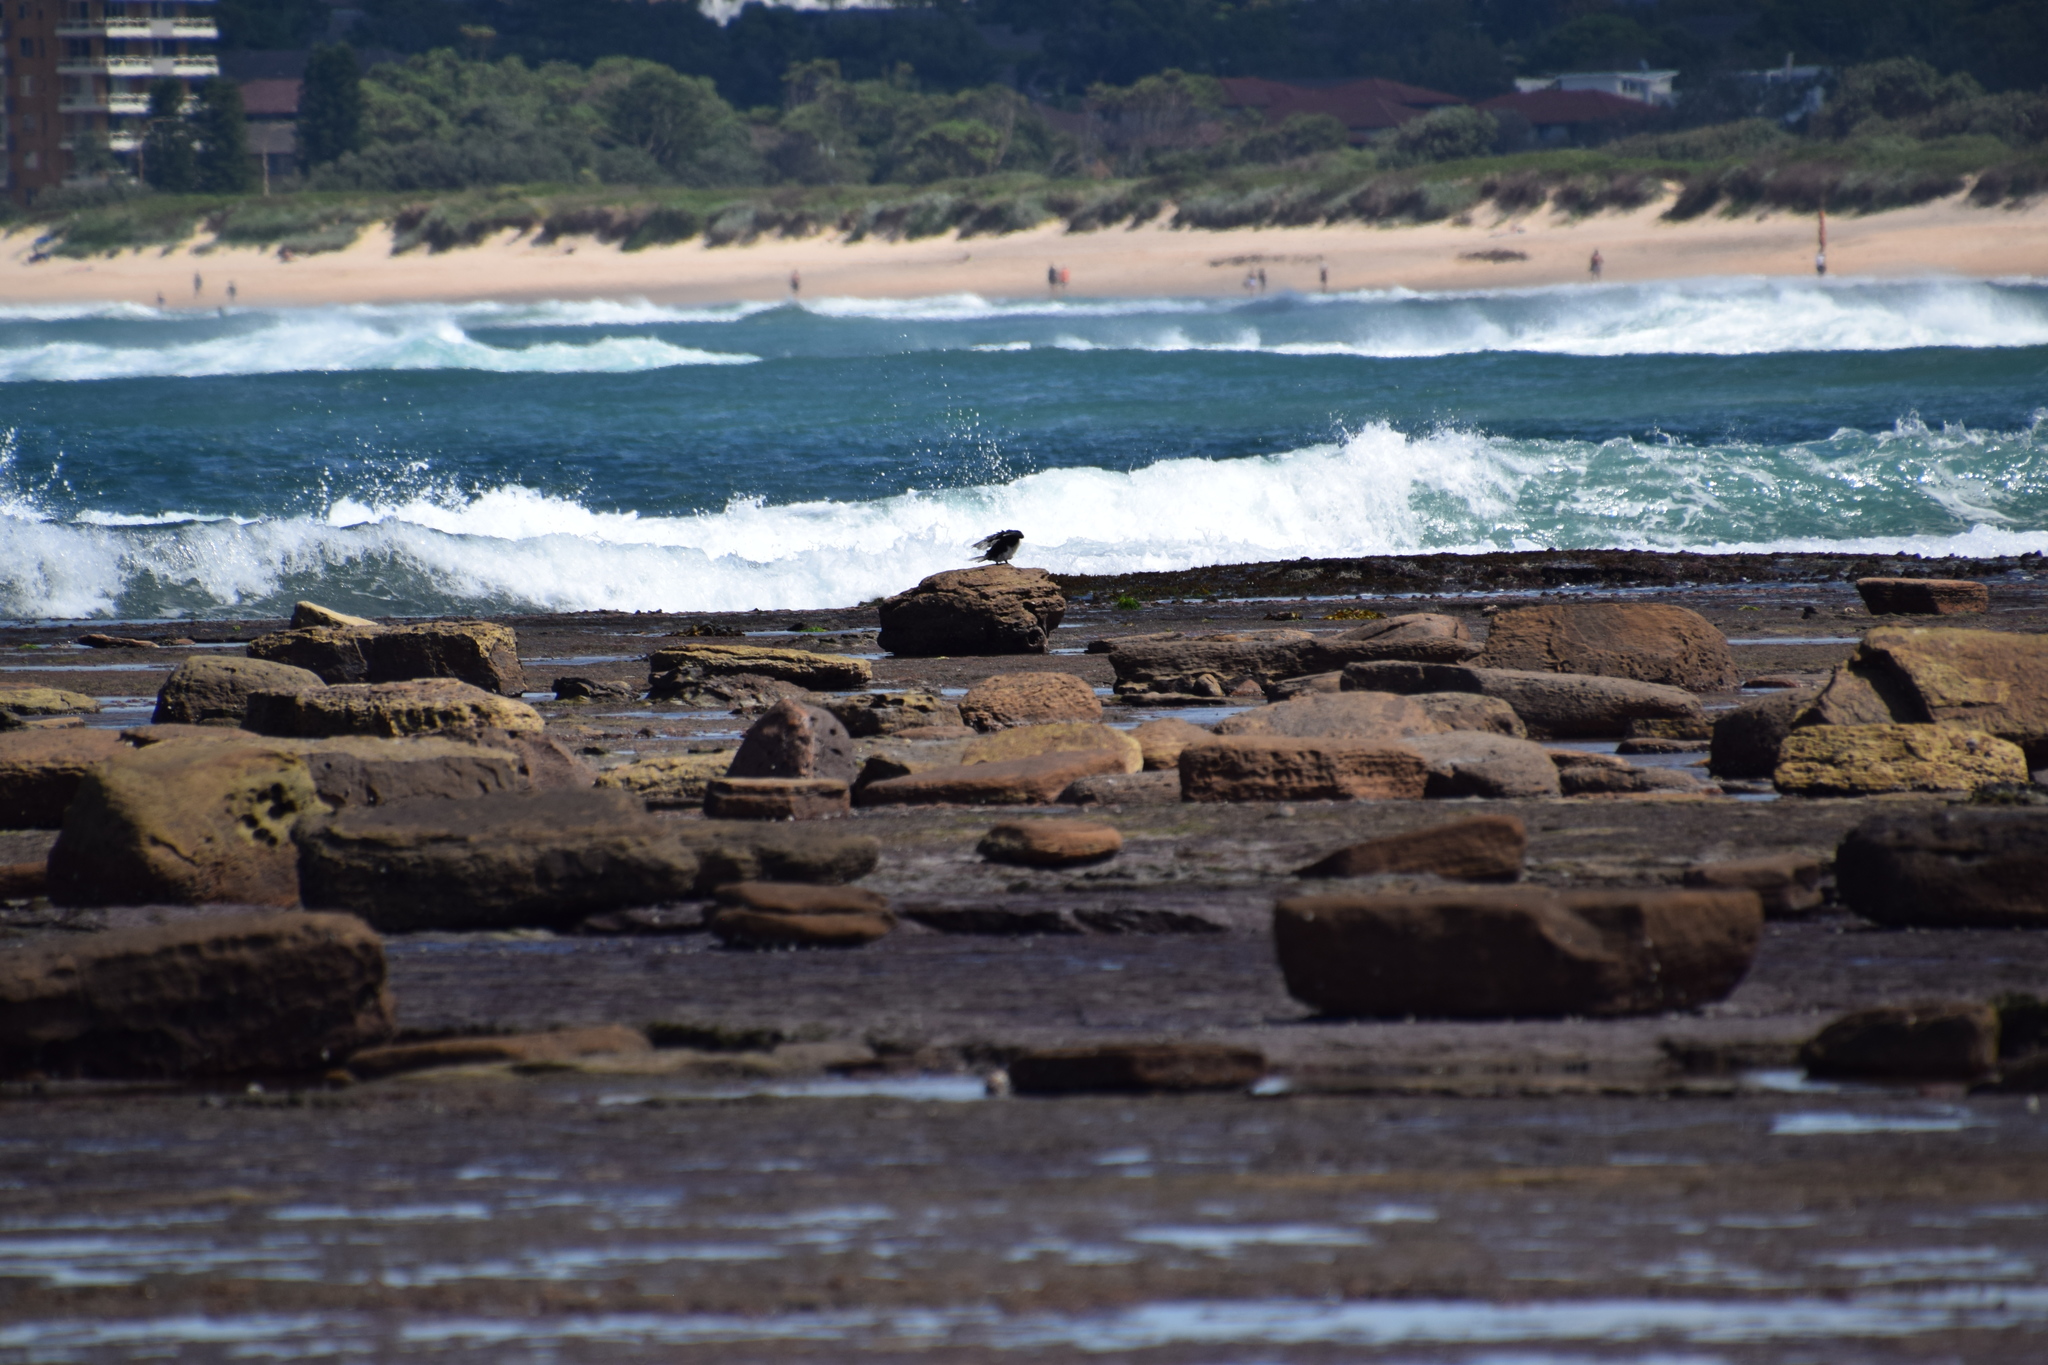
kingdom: Animalia
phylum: Chordata
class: Aves
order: Suliformes
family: Anhingidae
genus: Anhinga
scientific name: Anhinga novaehollandiae
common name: Australasian darter
